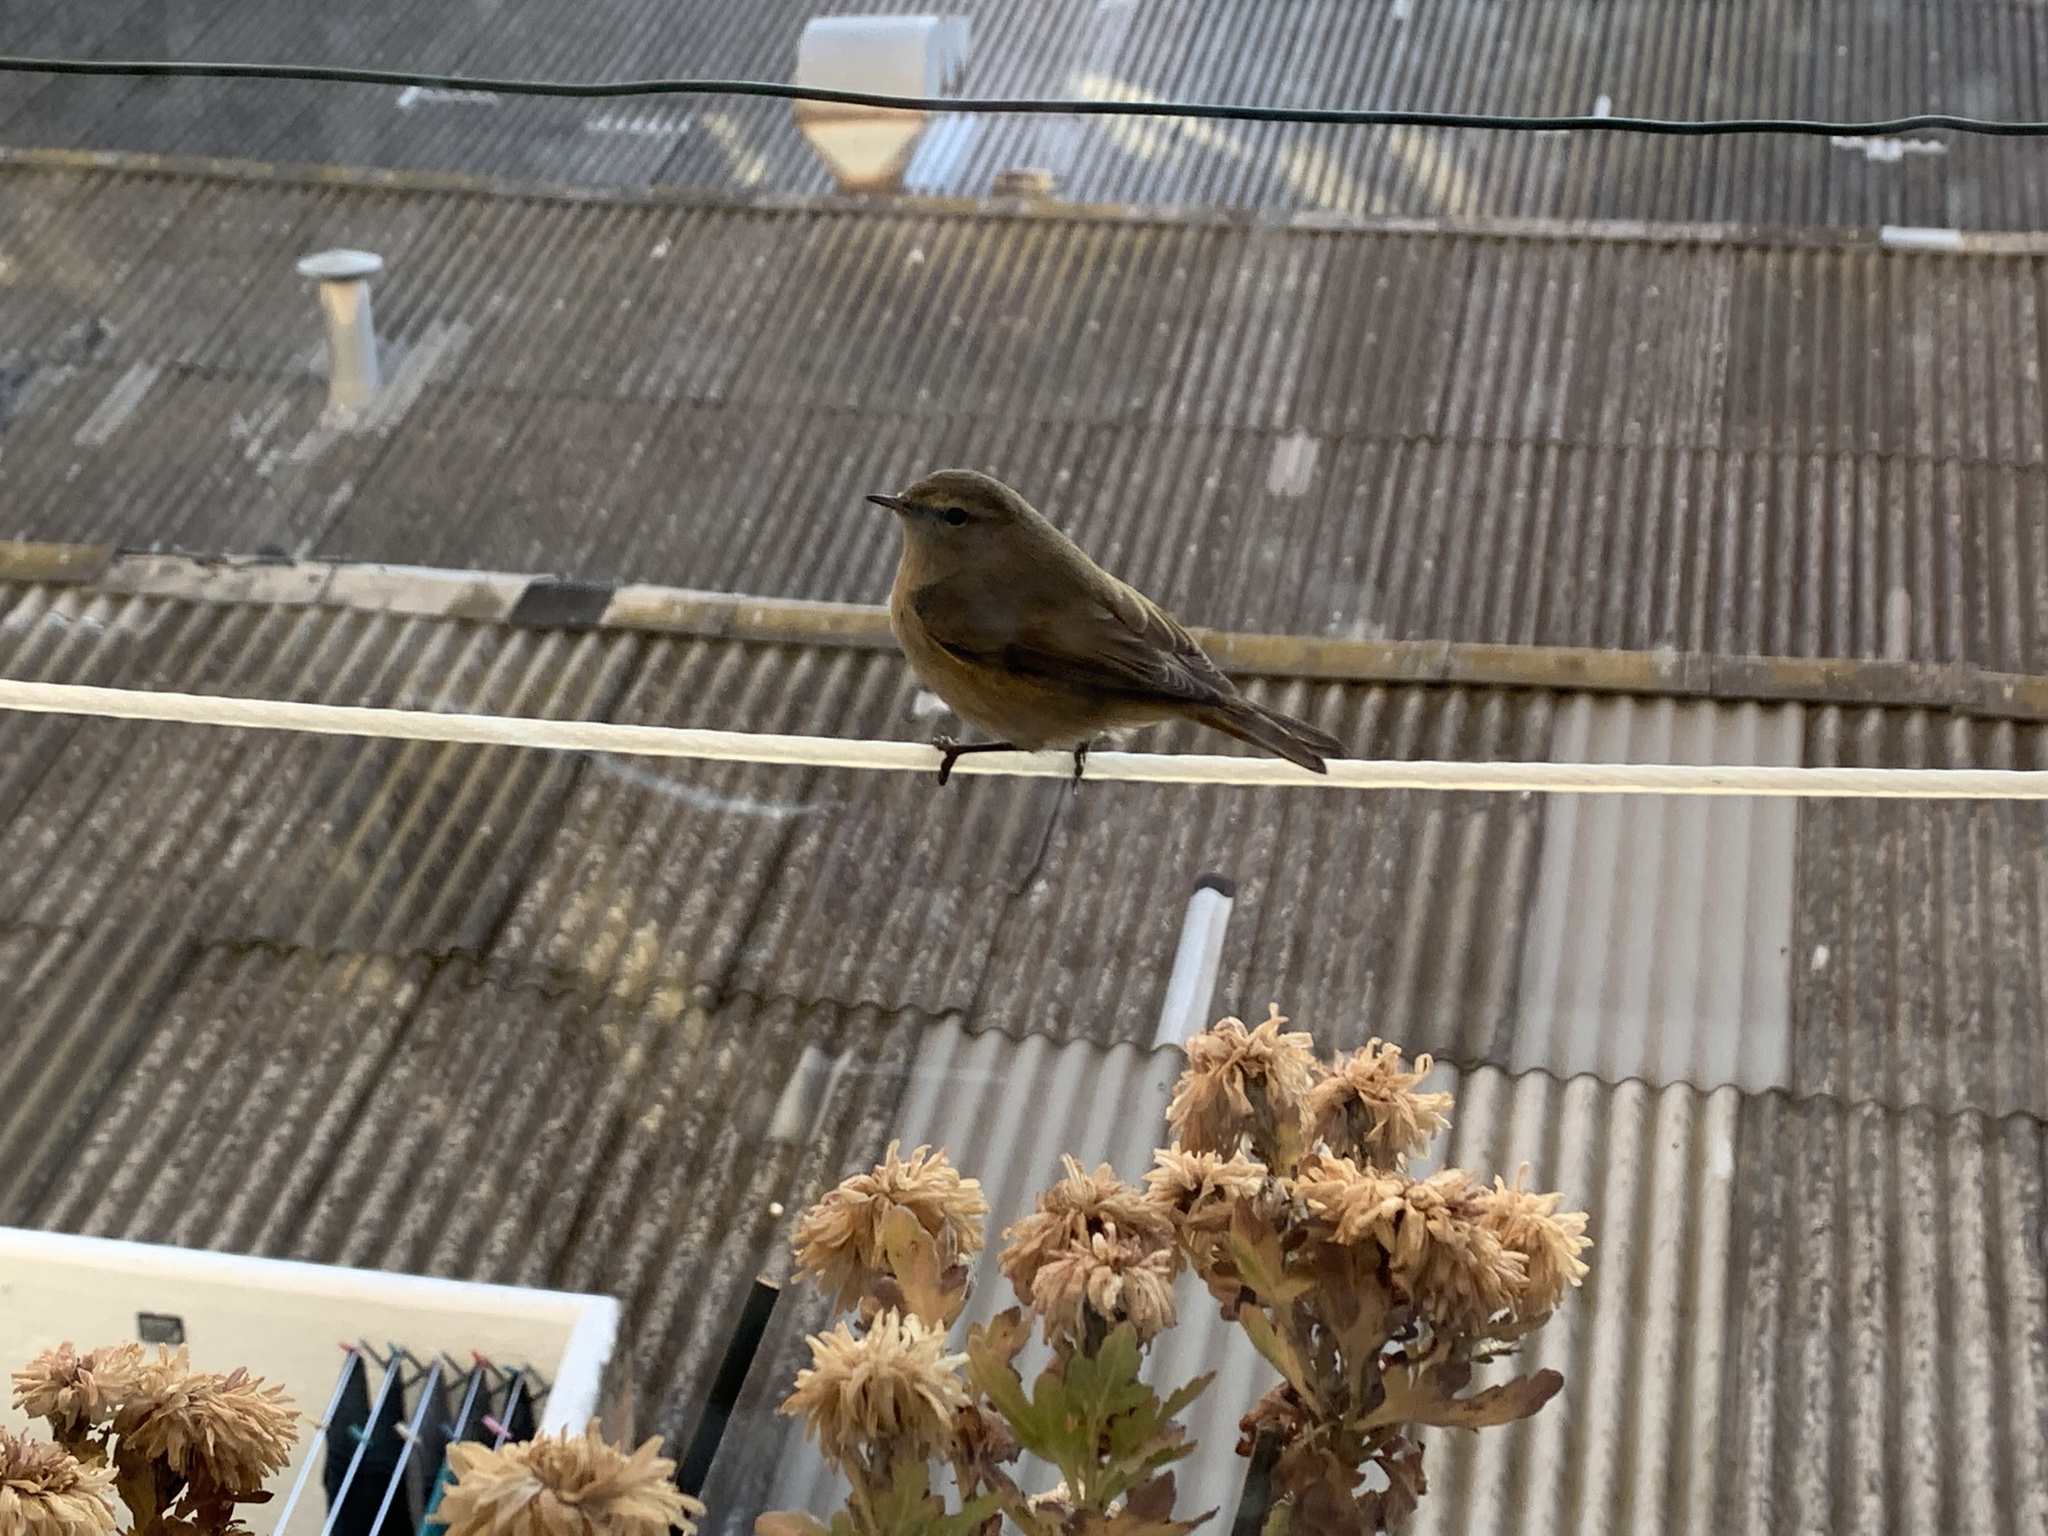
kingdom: Animalia
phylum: Chordata
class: Aves
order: Passeriformes
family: Phylloscopidae
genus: Phylloscopus
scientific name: Phylloscopus collybita
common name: Common chiffchaff
